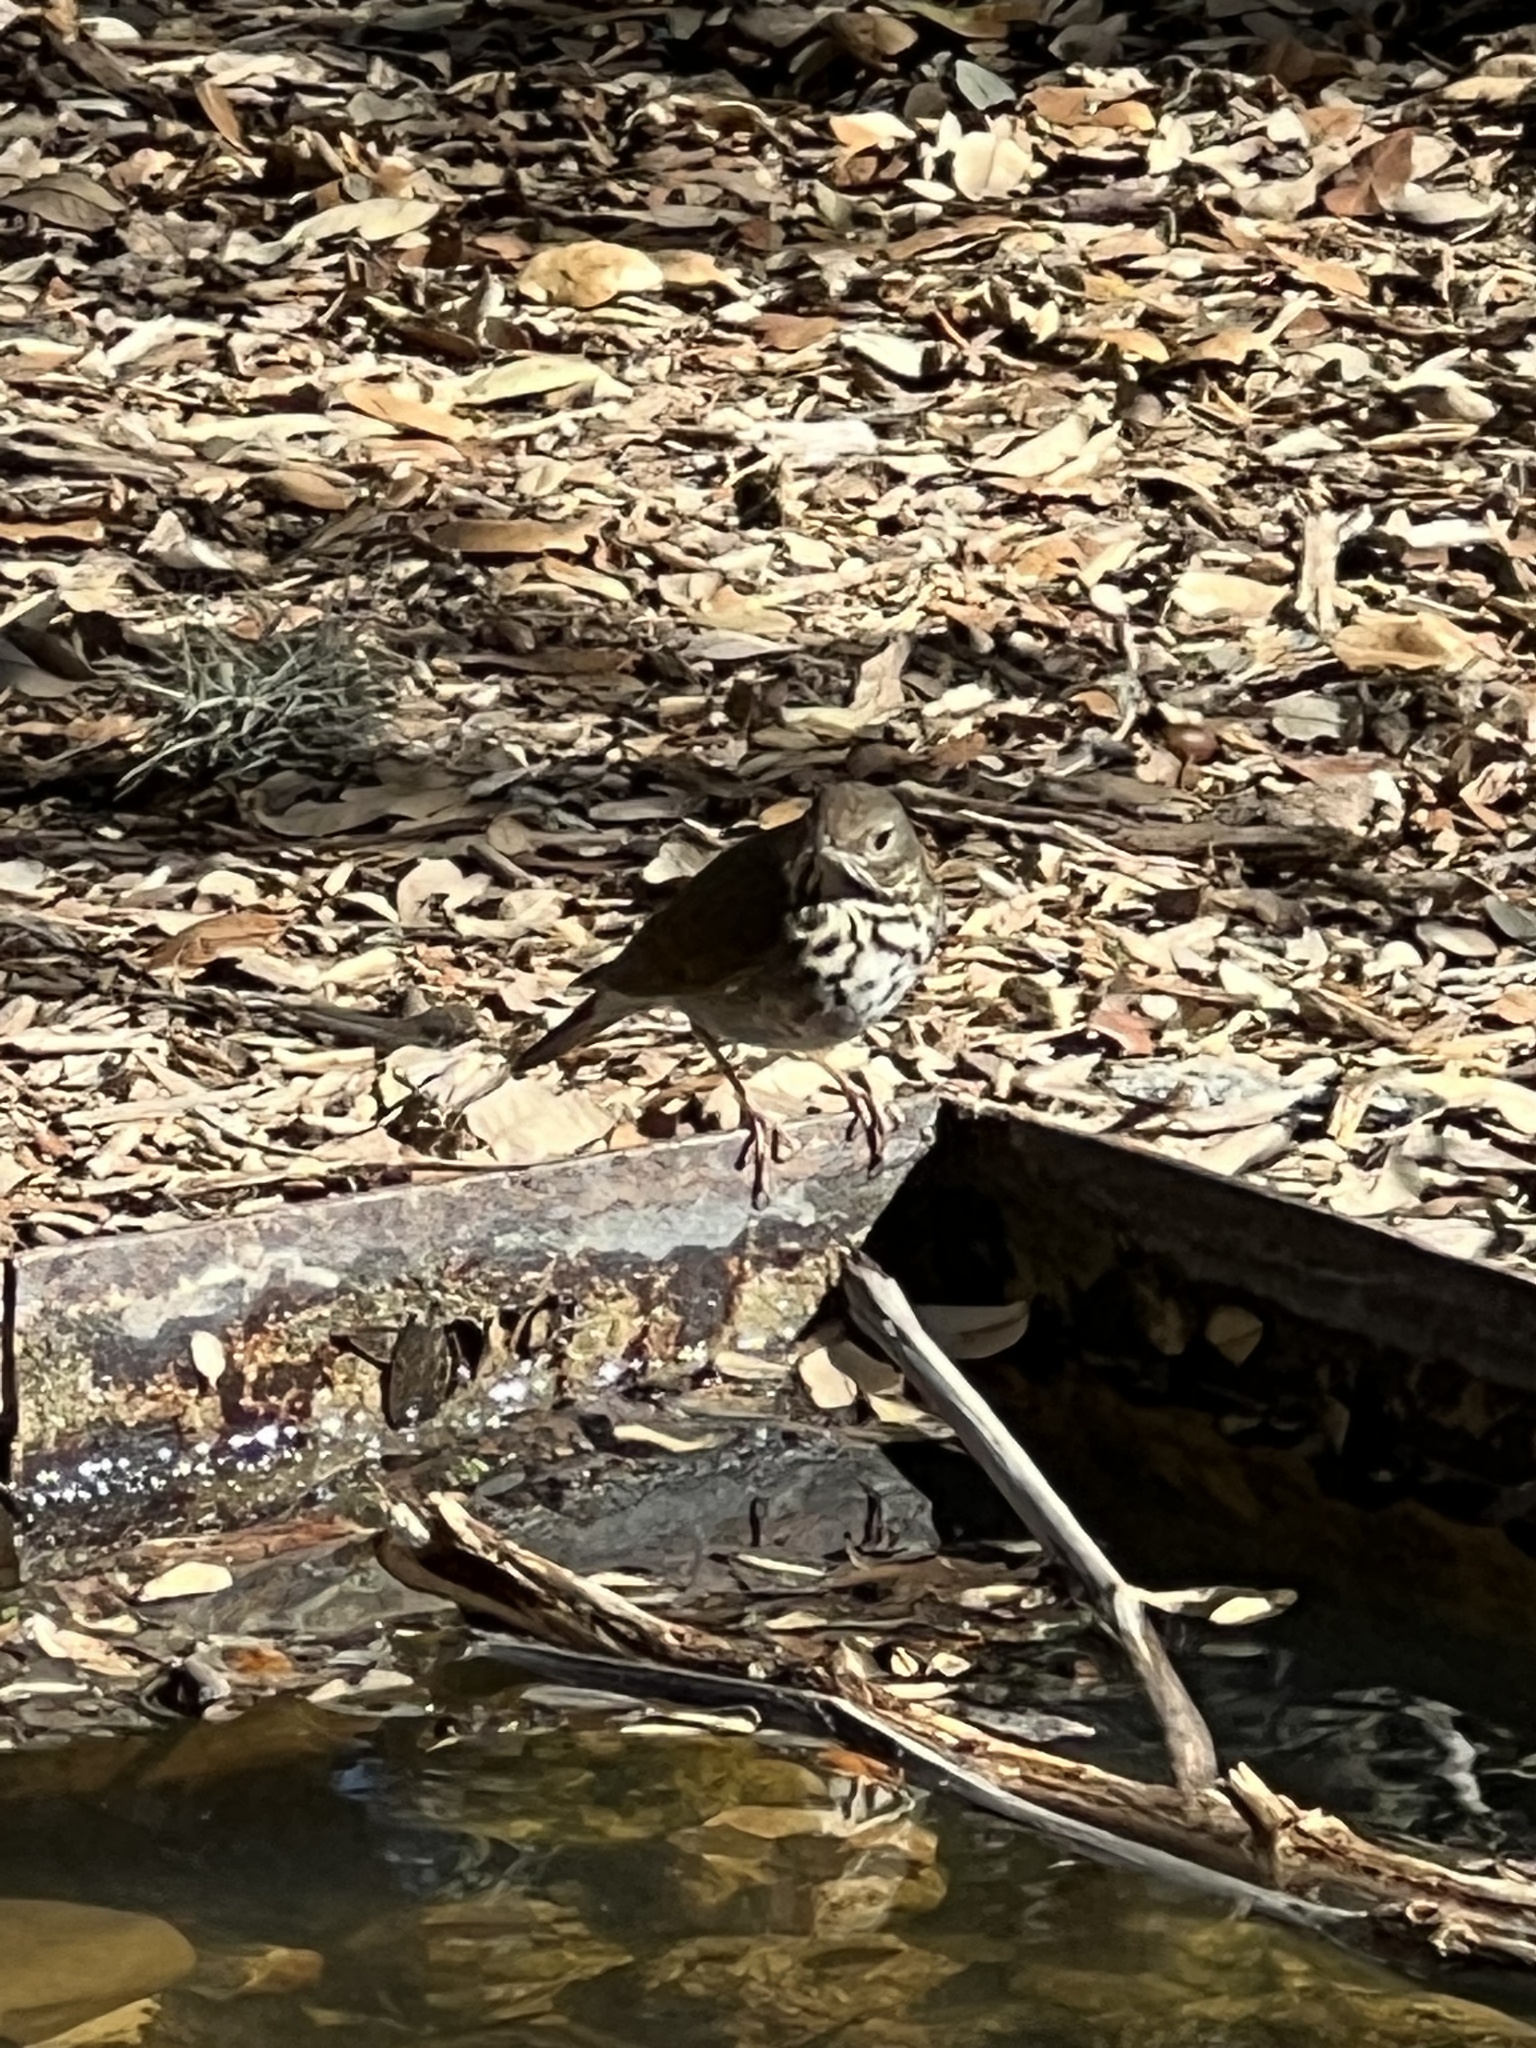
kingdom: Animalia
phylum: Chordata
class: Aves
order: Passeriformes
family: Turdidae
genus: Catharus
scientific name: Catharus guttatus
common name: Hermit thrush
